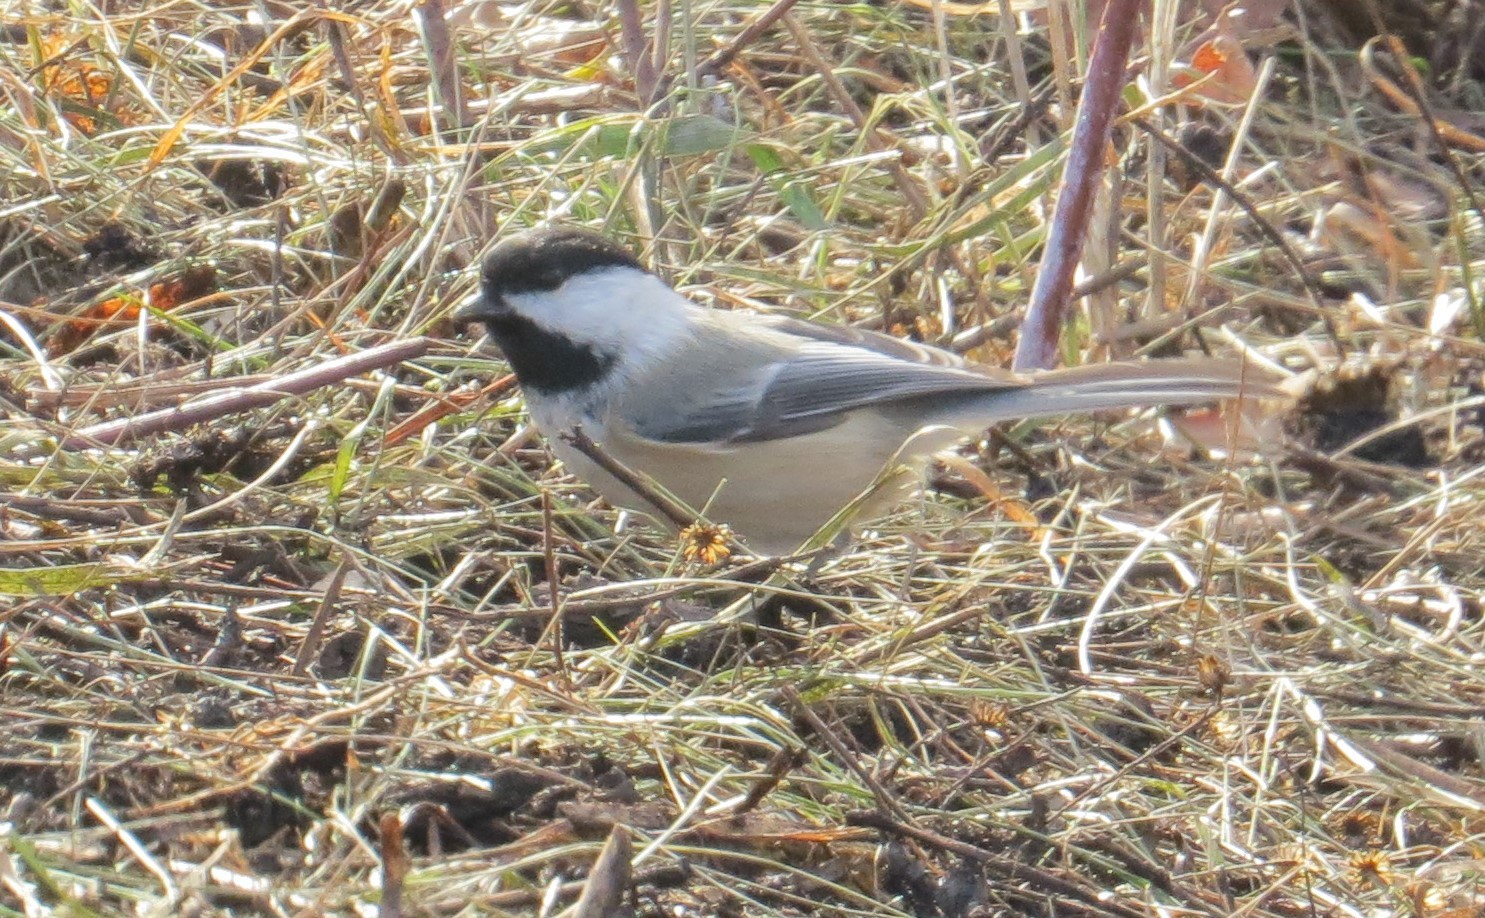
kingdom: Animalia
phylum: Chordata
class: Aves
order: Passeriformes
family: Paridae
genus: Poecile
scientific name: Poecile atricapillus
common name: Black-capped chickadee
